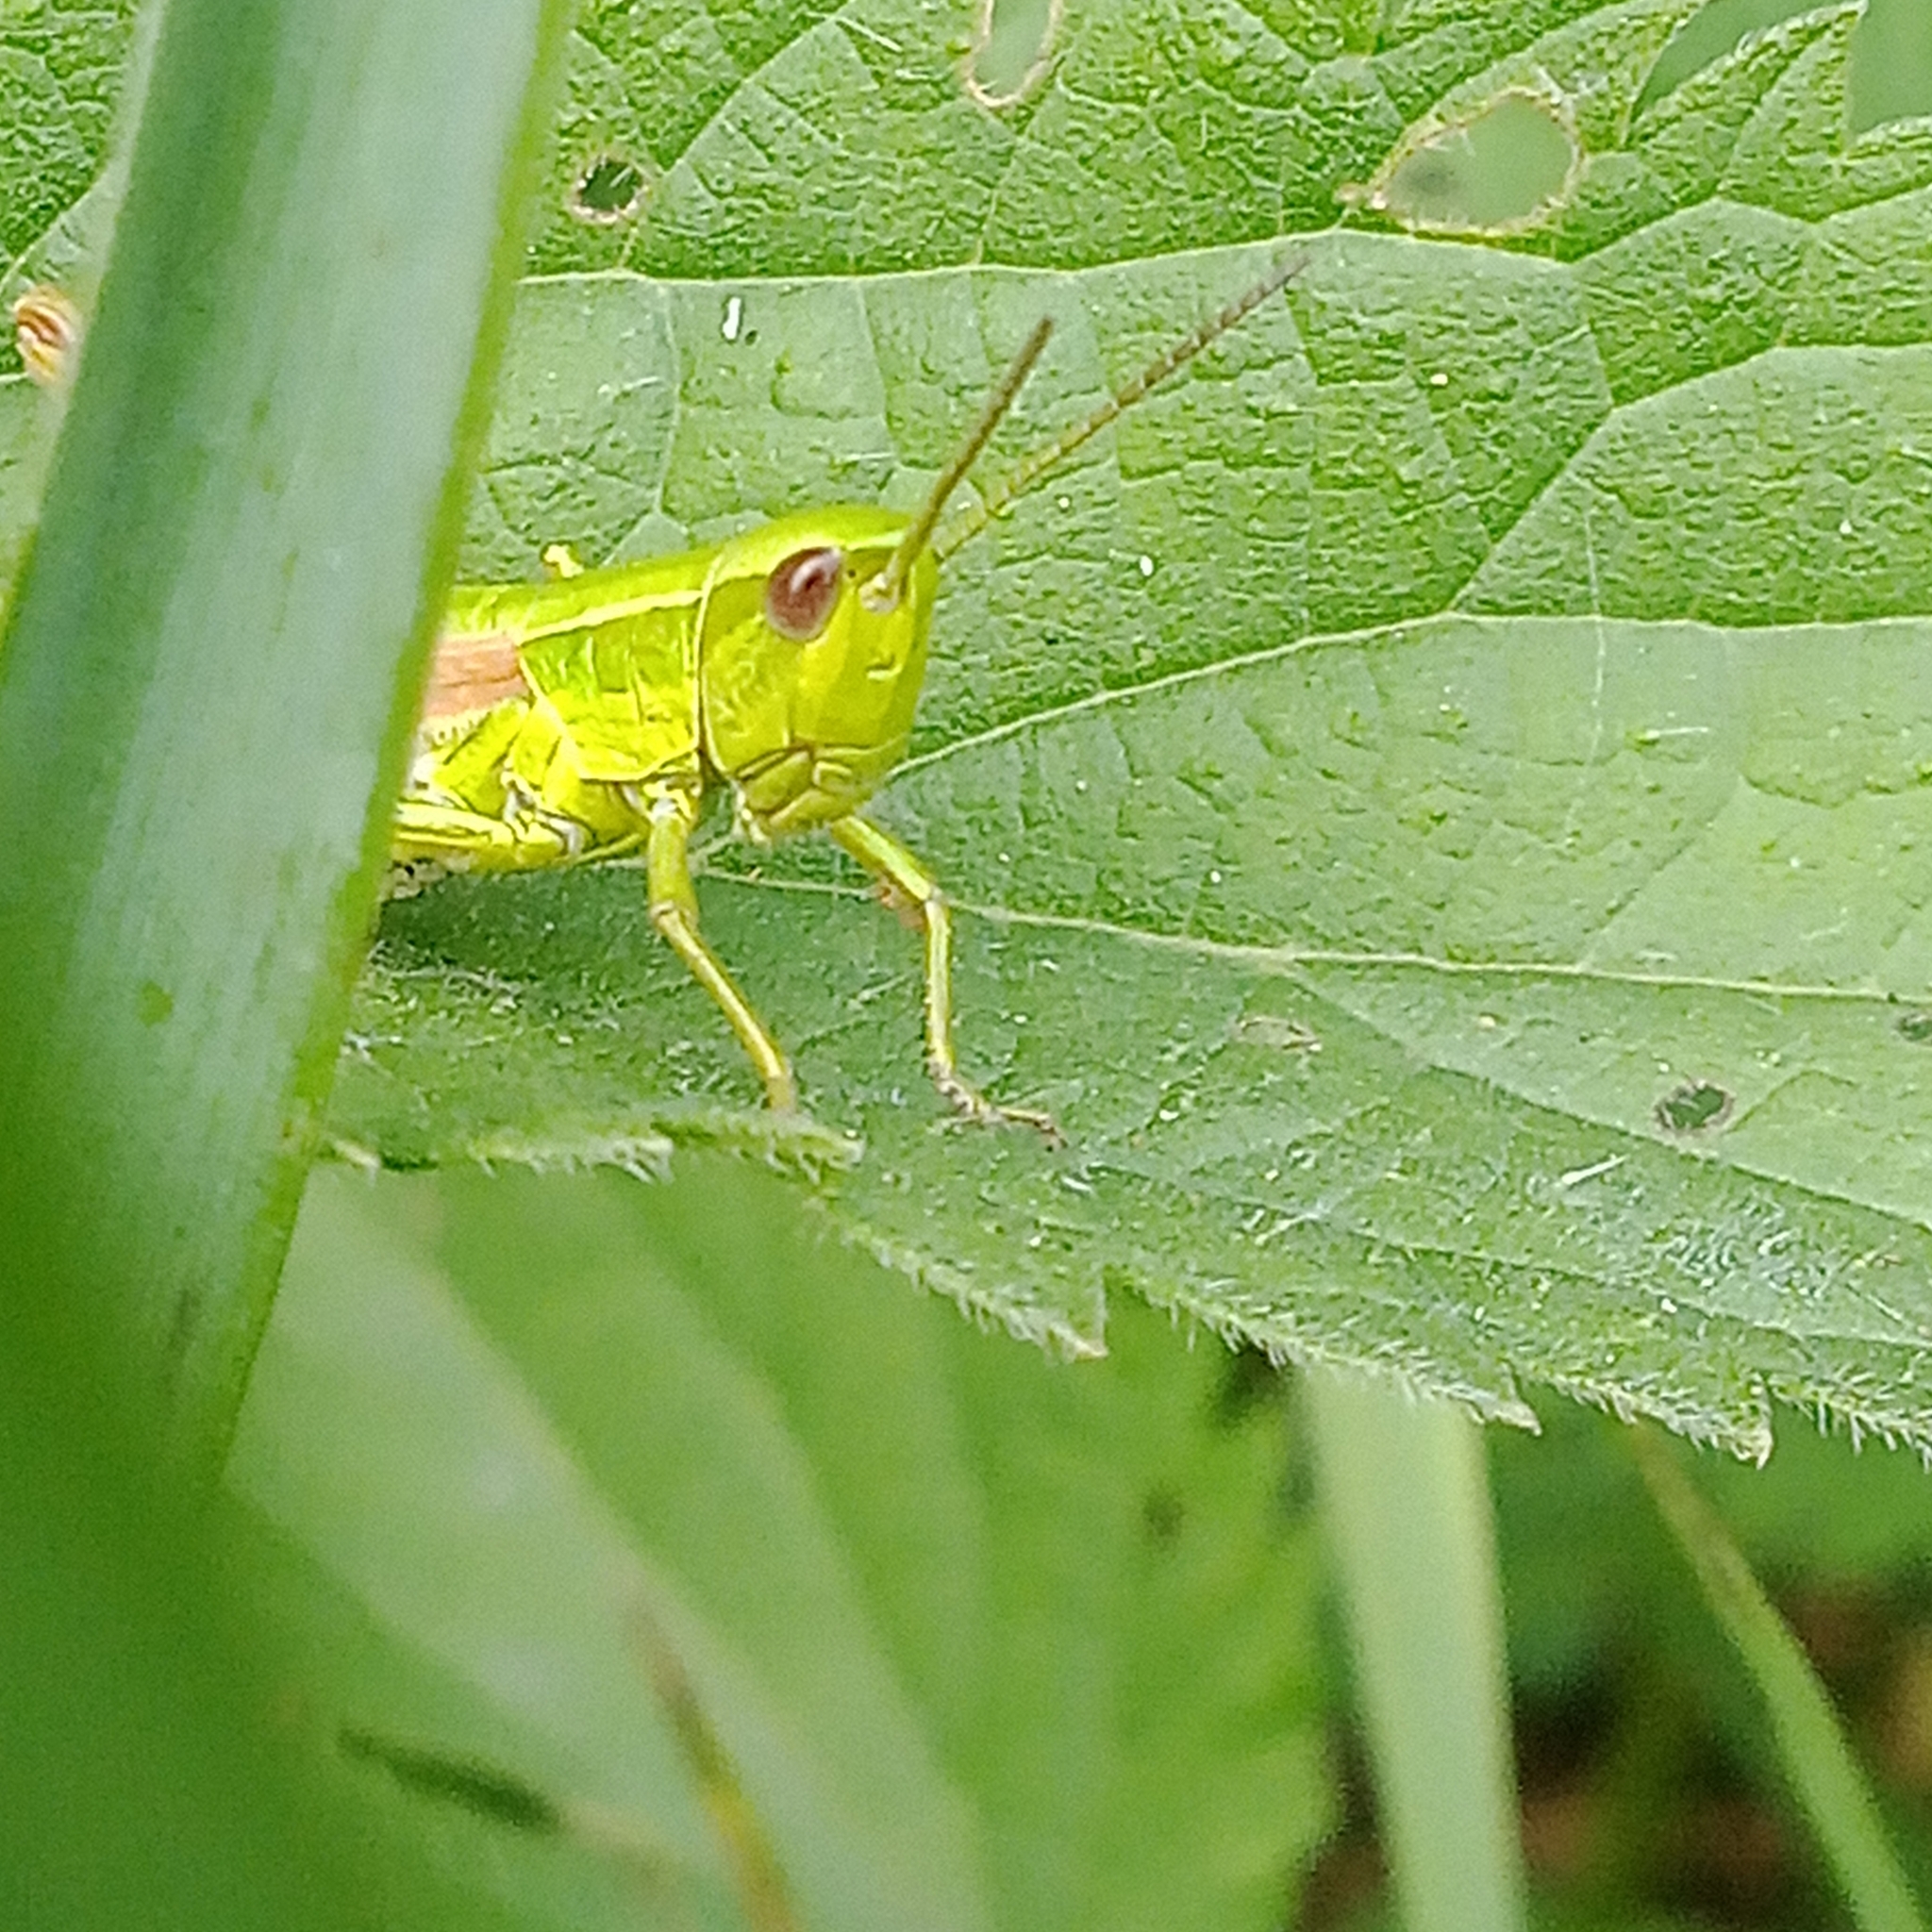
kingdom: Animalia
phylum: Arthropoda
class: Insecta
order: Orthoptera
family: Acrididae
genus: Euthystira
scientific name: Euthystira brachyptera
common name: Small gold grasshopper
